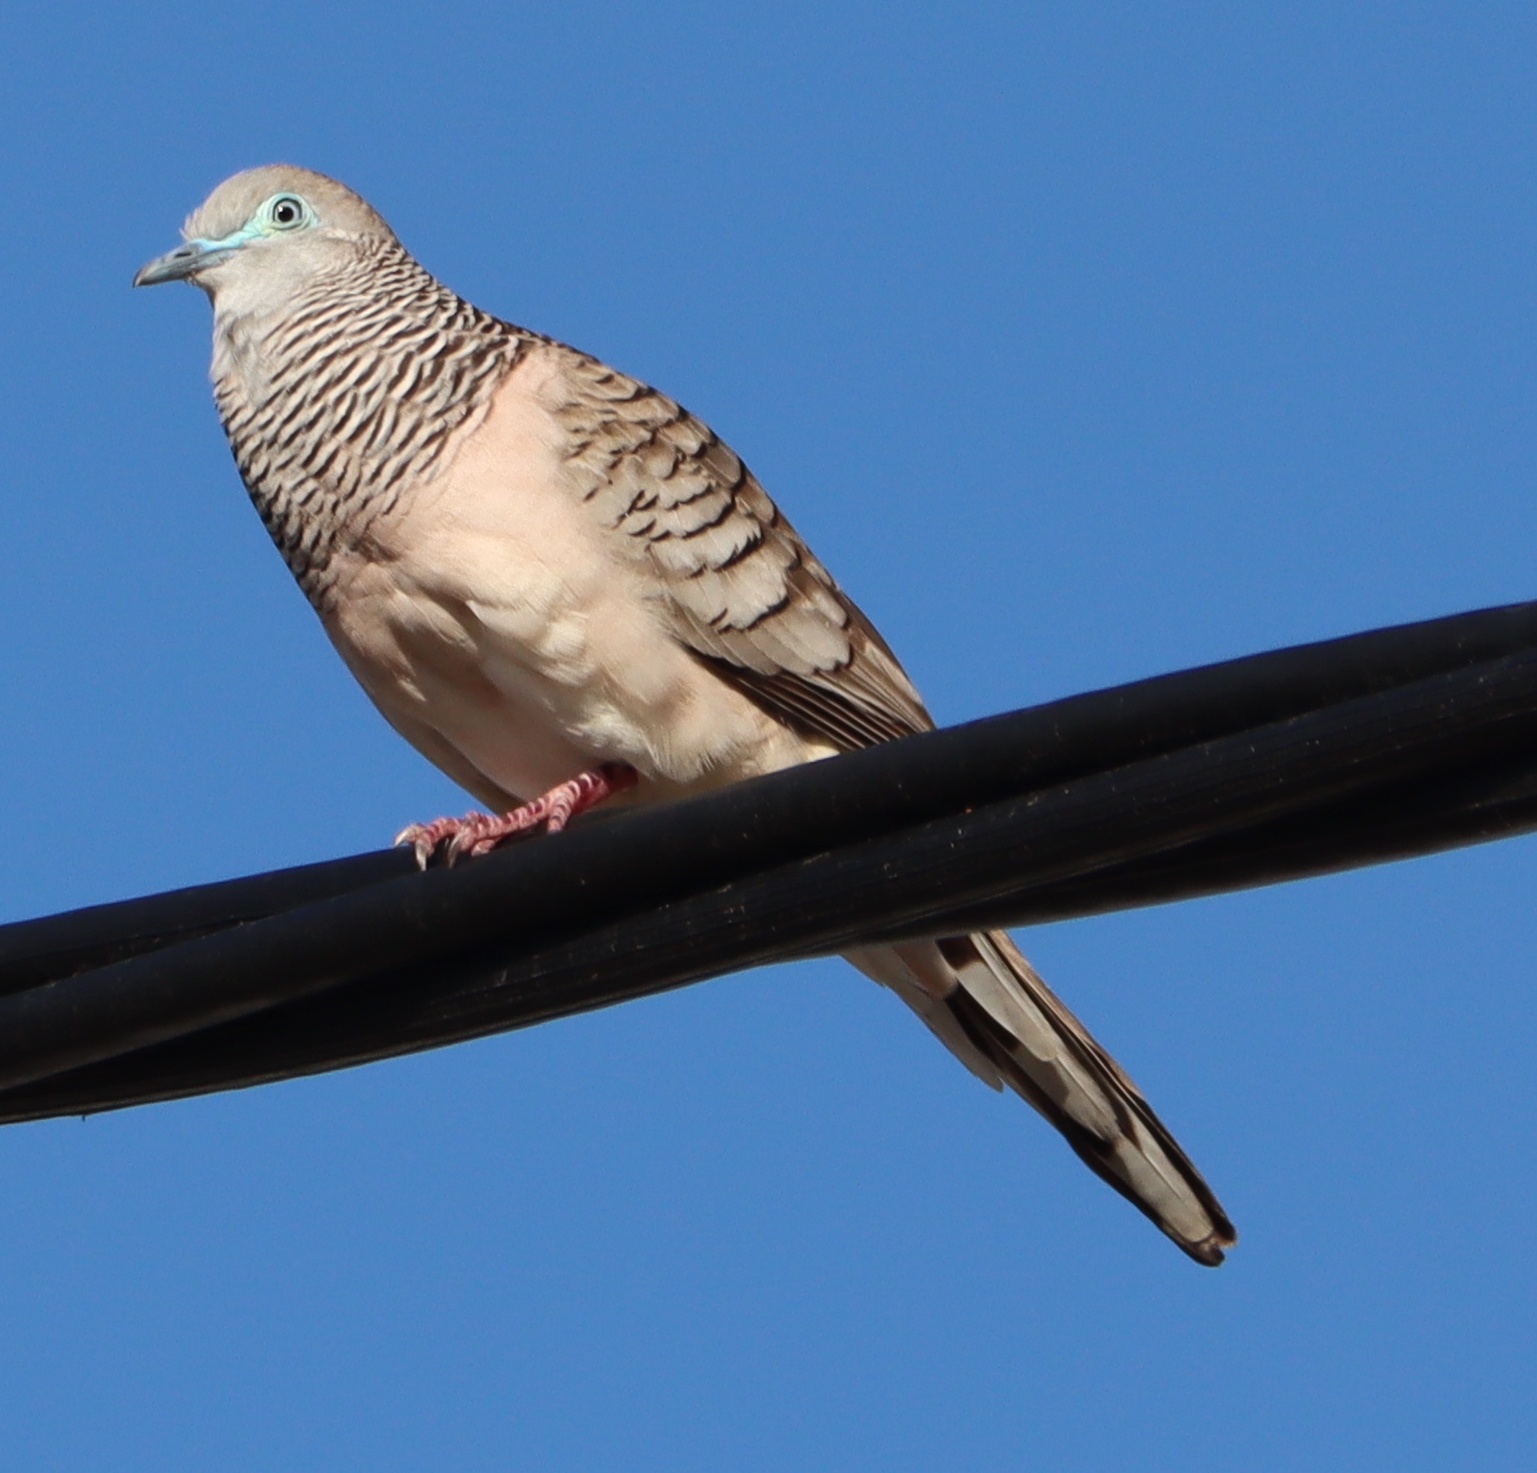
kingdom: Animalia
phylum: Chordata
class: Aves
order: Columbiformes
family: Columbidae
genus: Geopelia
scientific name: Geopelia placida
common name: Peaceful dove
